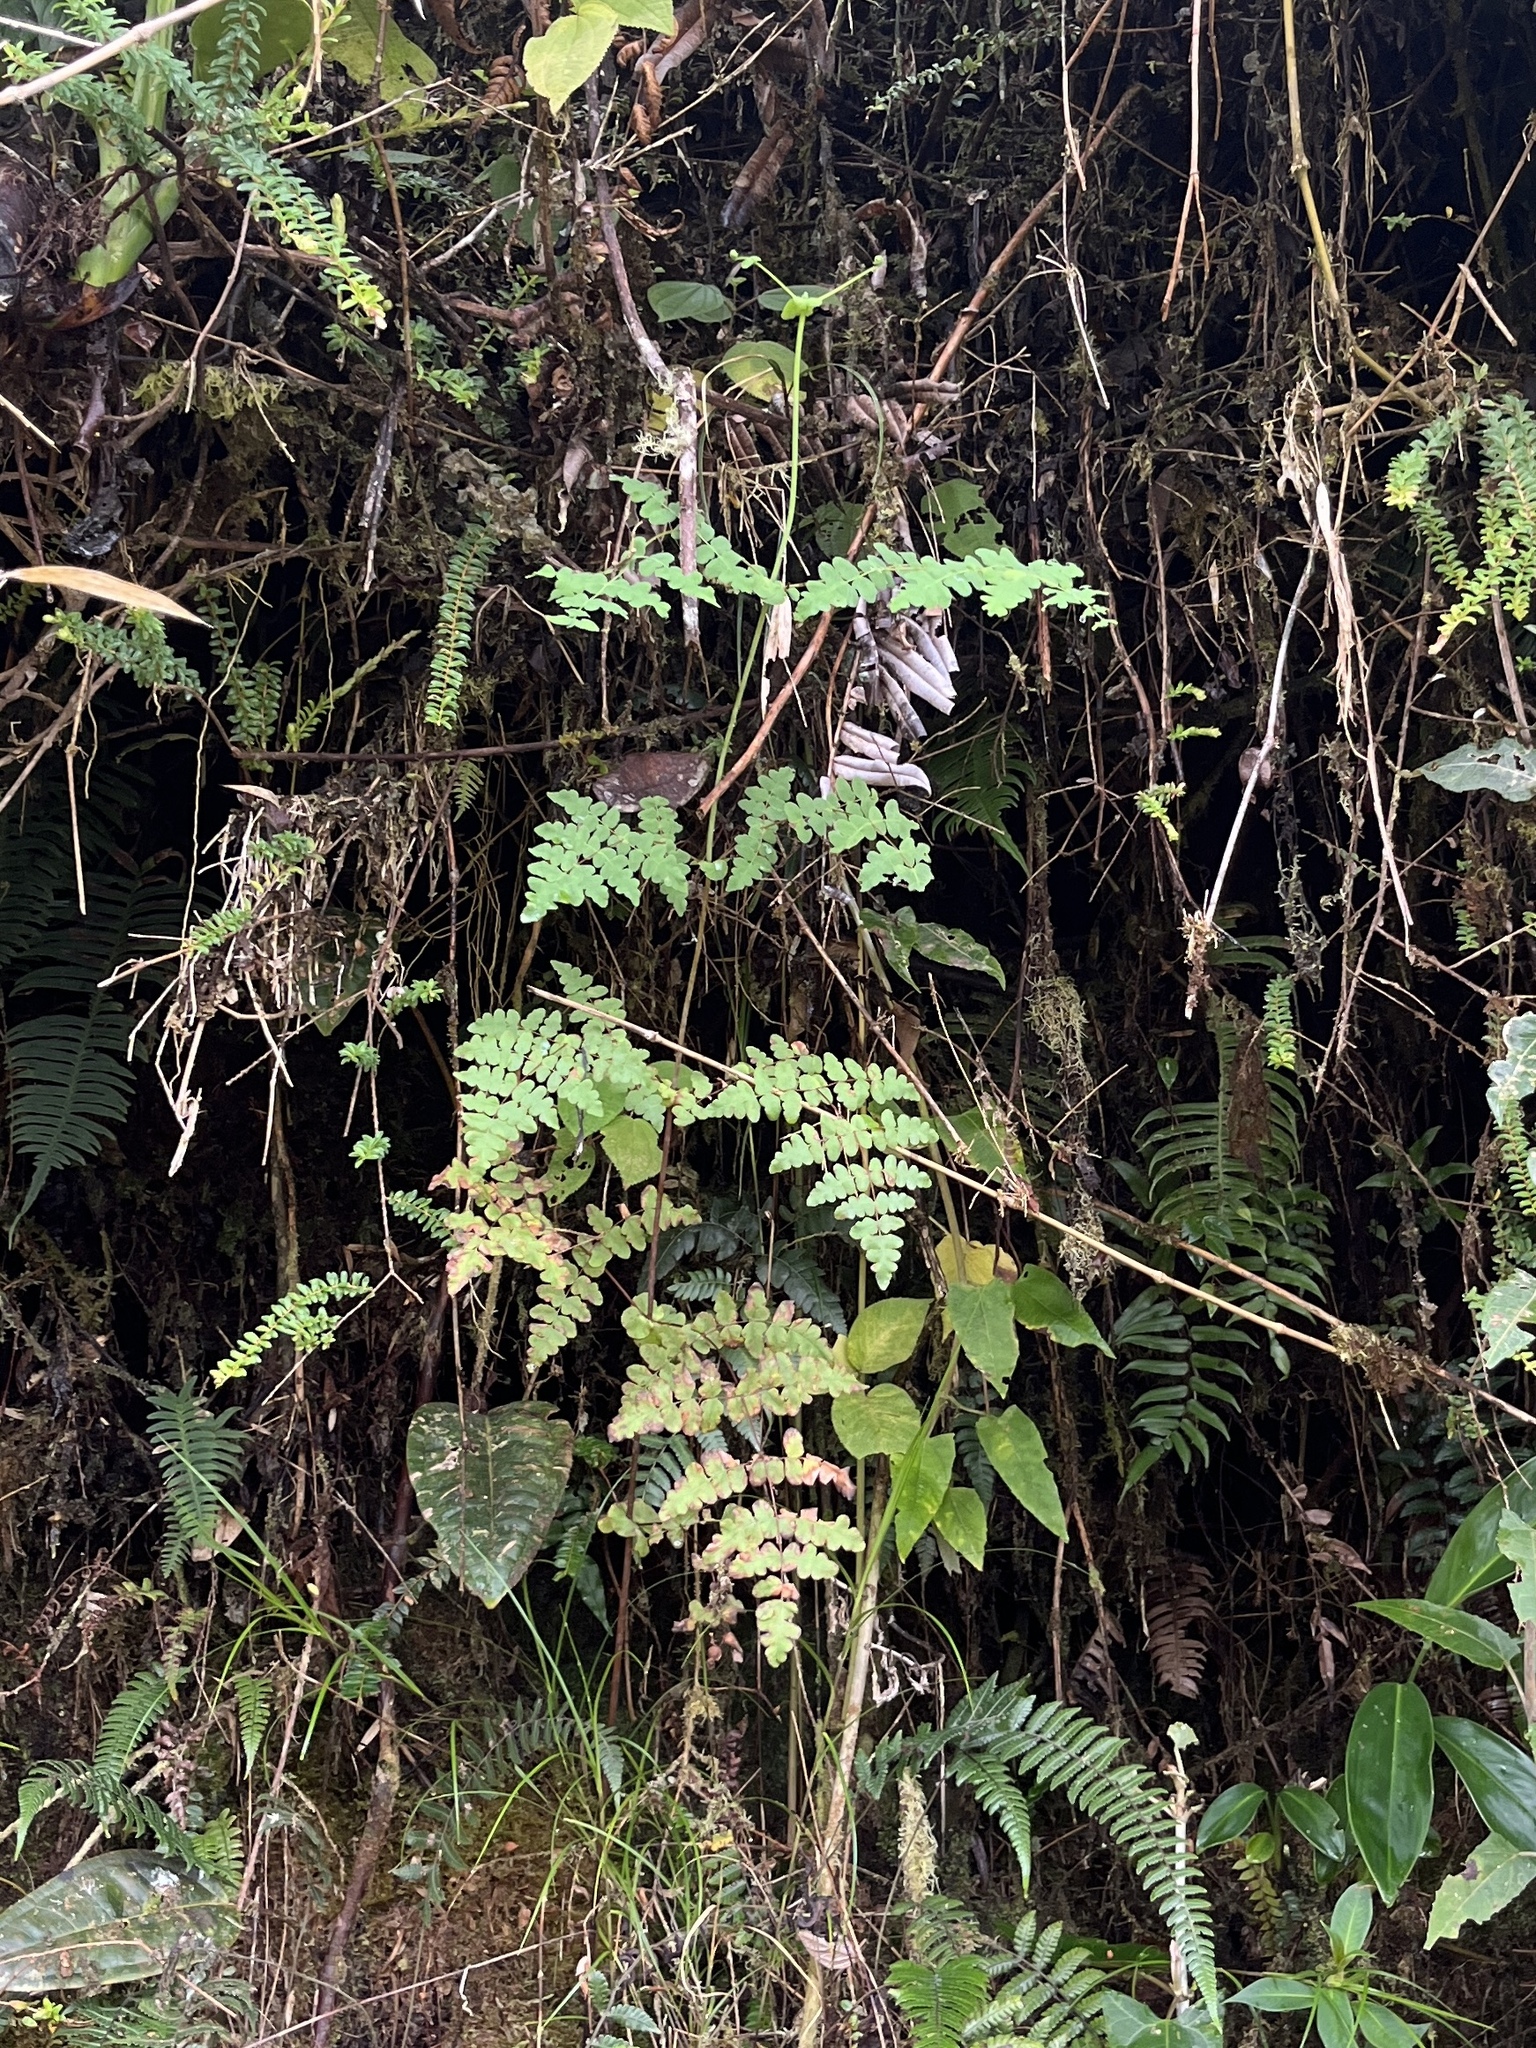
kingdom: Plantae
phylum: Tracheophyta
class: Polypodiopsida
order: Polypodiales
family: Dennstaedtiaceae
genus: Histiopteris
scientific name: Histiopteris incisa
